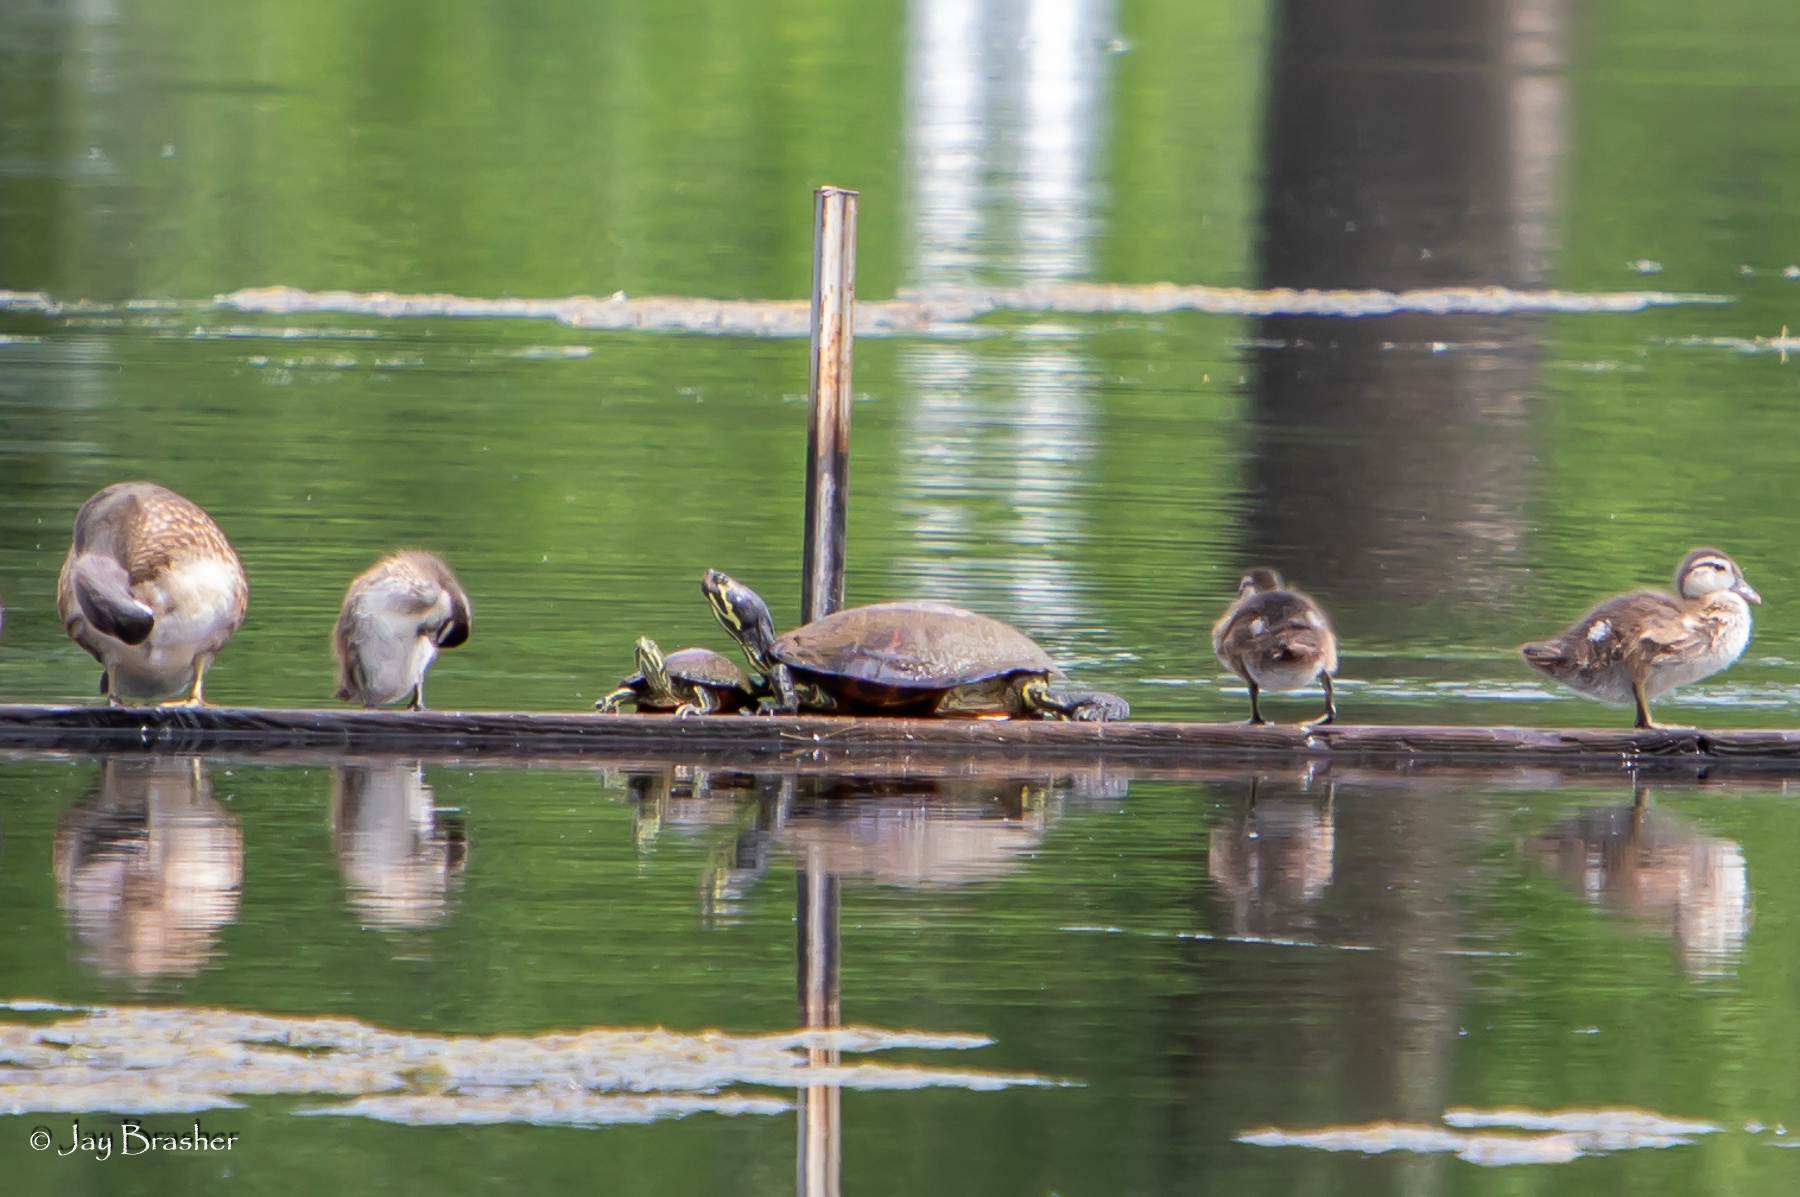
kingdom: Animalia
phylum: Chordata
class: Testudines
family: Emydidae
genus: Trachemys
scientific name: Trachemys scripta
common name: Slider
